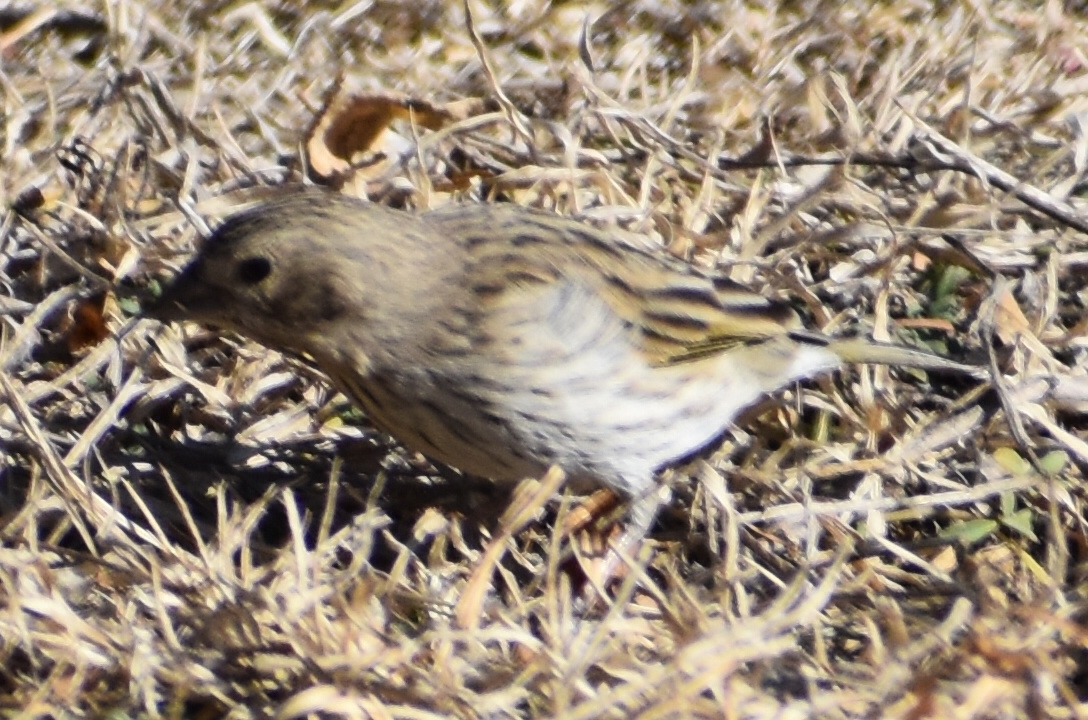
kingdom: Animalia
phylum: Chordata
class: Aves
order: Passeriformes
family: Thraupidae
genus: Sicalis
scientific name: Sicalis flaveola
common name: Saffron finch
